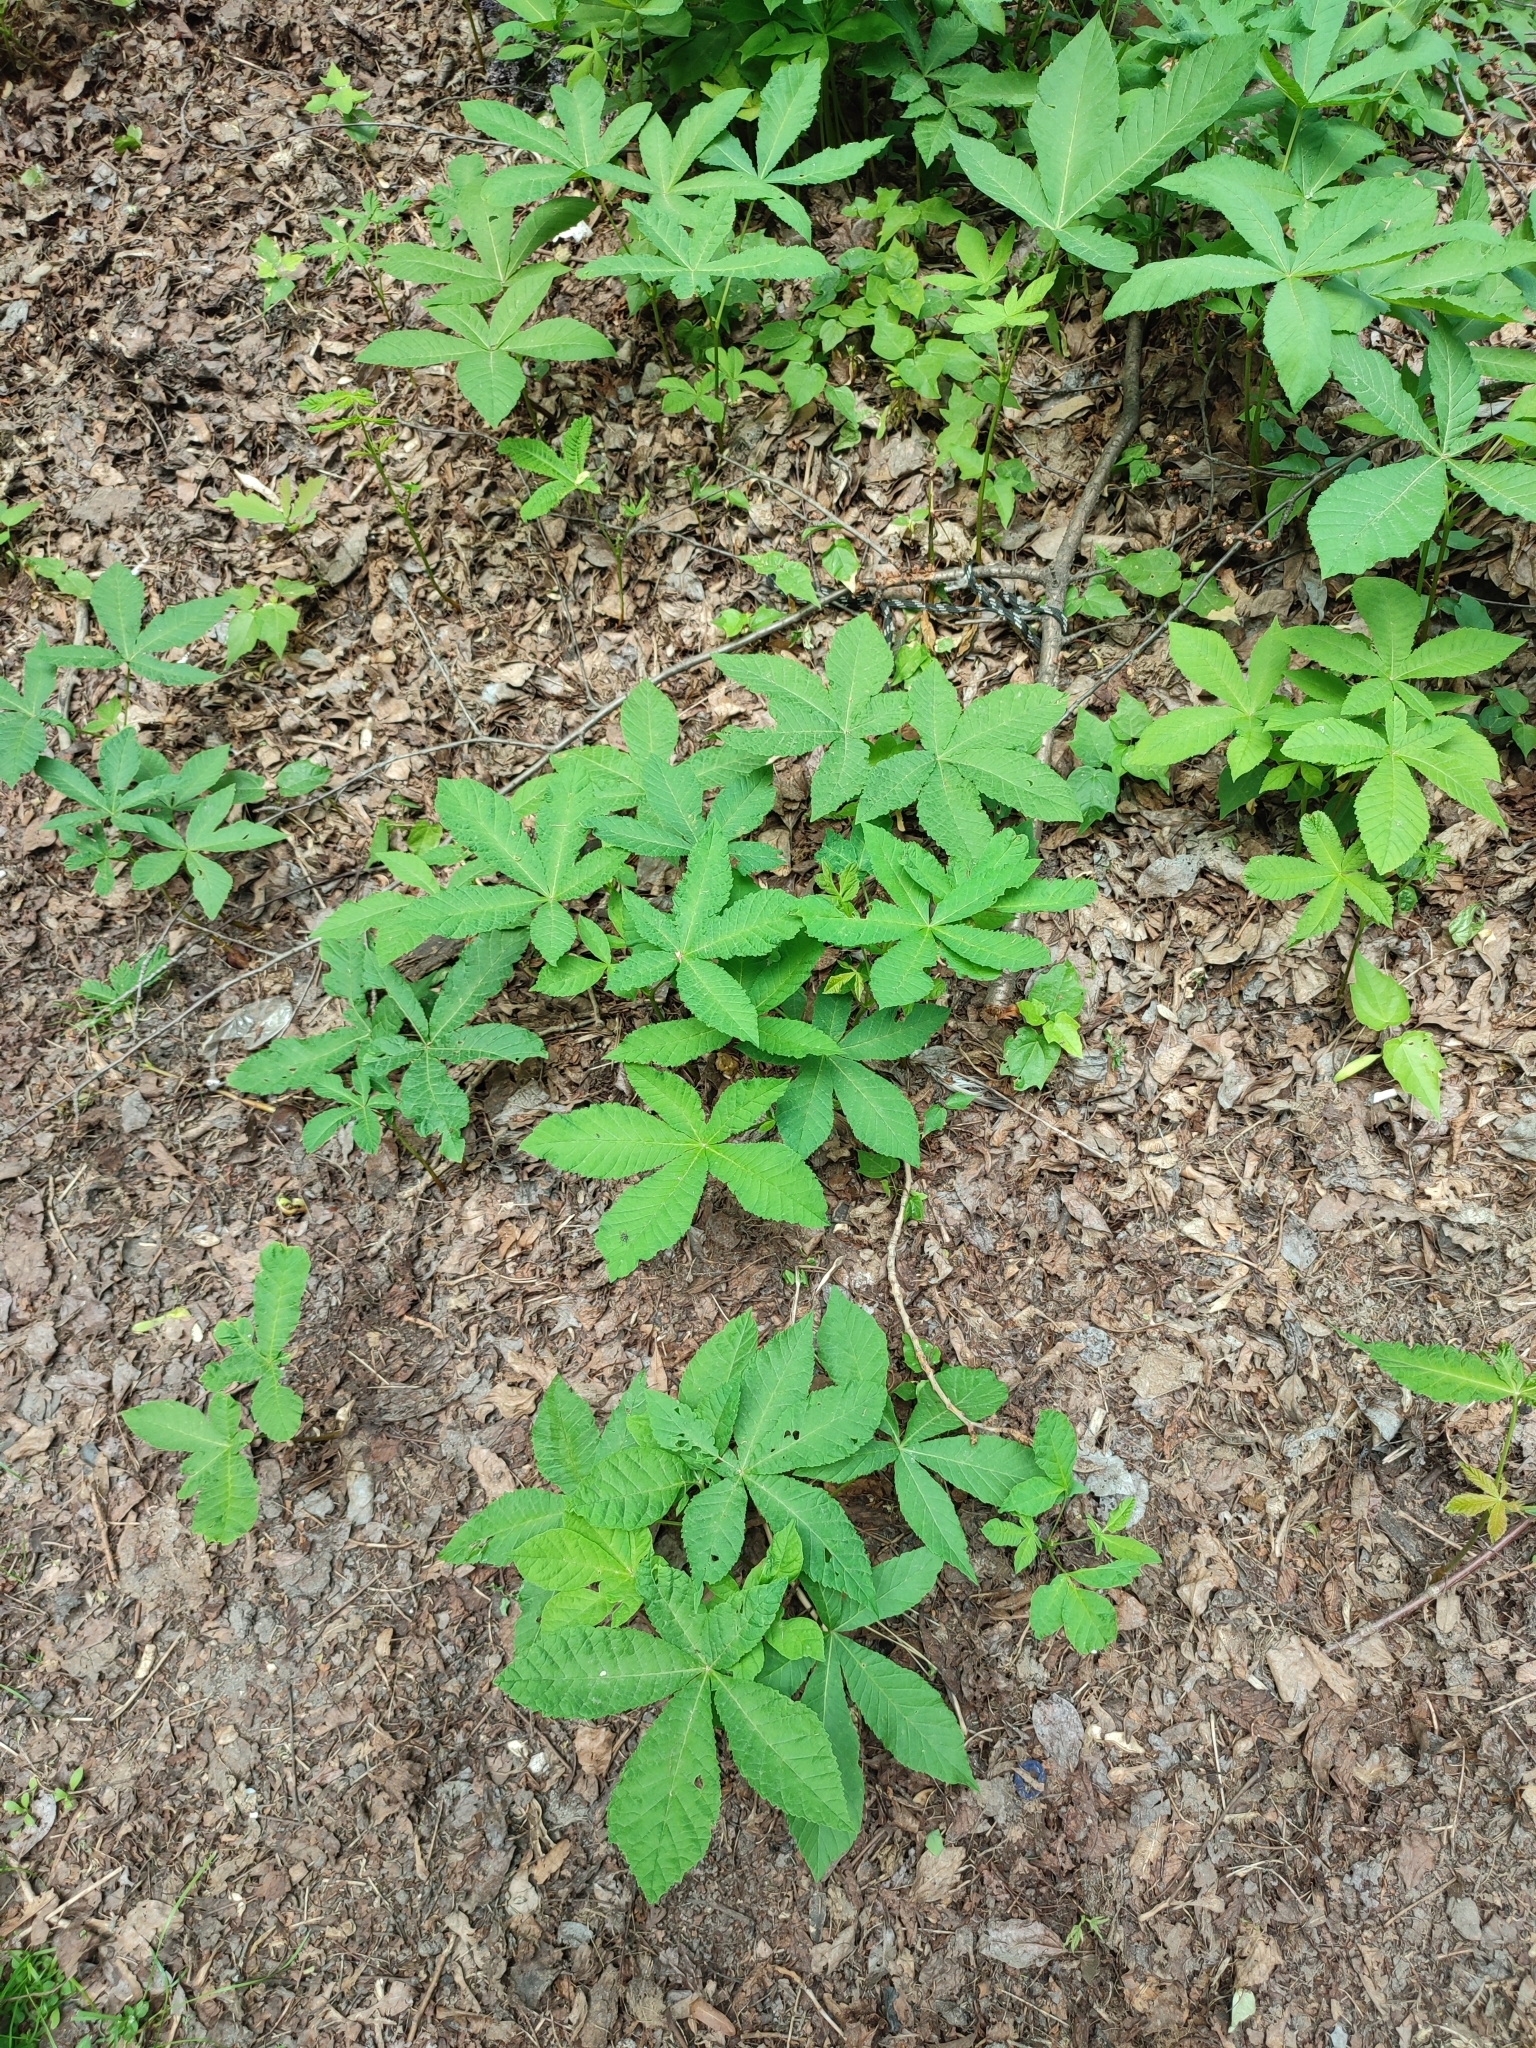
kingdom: Plantae
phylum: Tracheophyta
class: Magnoliopsida
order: Sapindales
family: Sapindaceae
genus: Aesculus
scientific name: Aesculus hippocastanum
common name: Horse-chestnut
